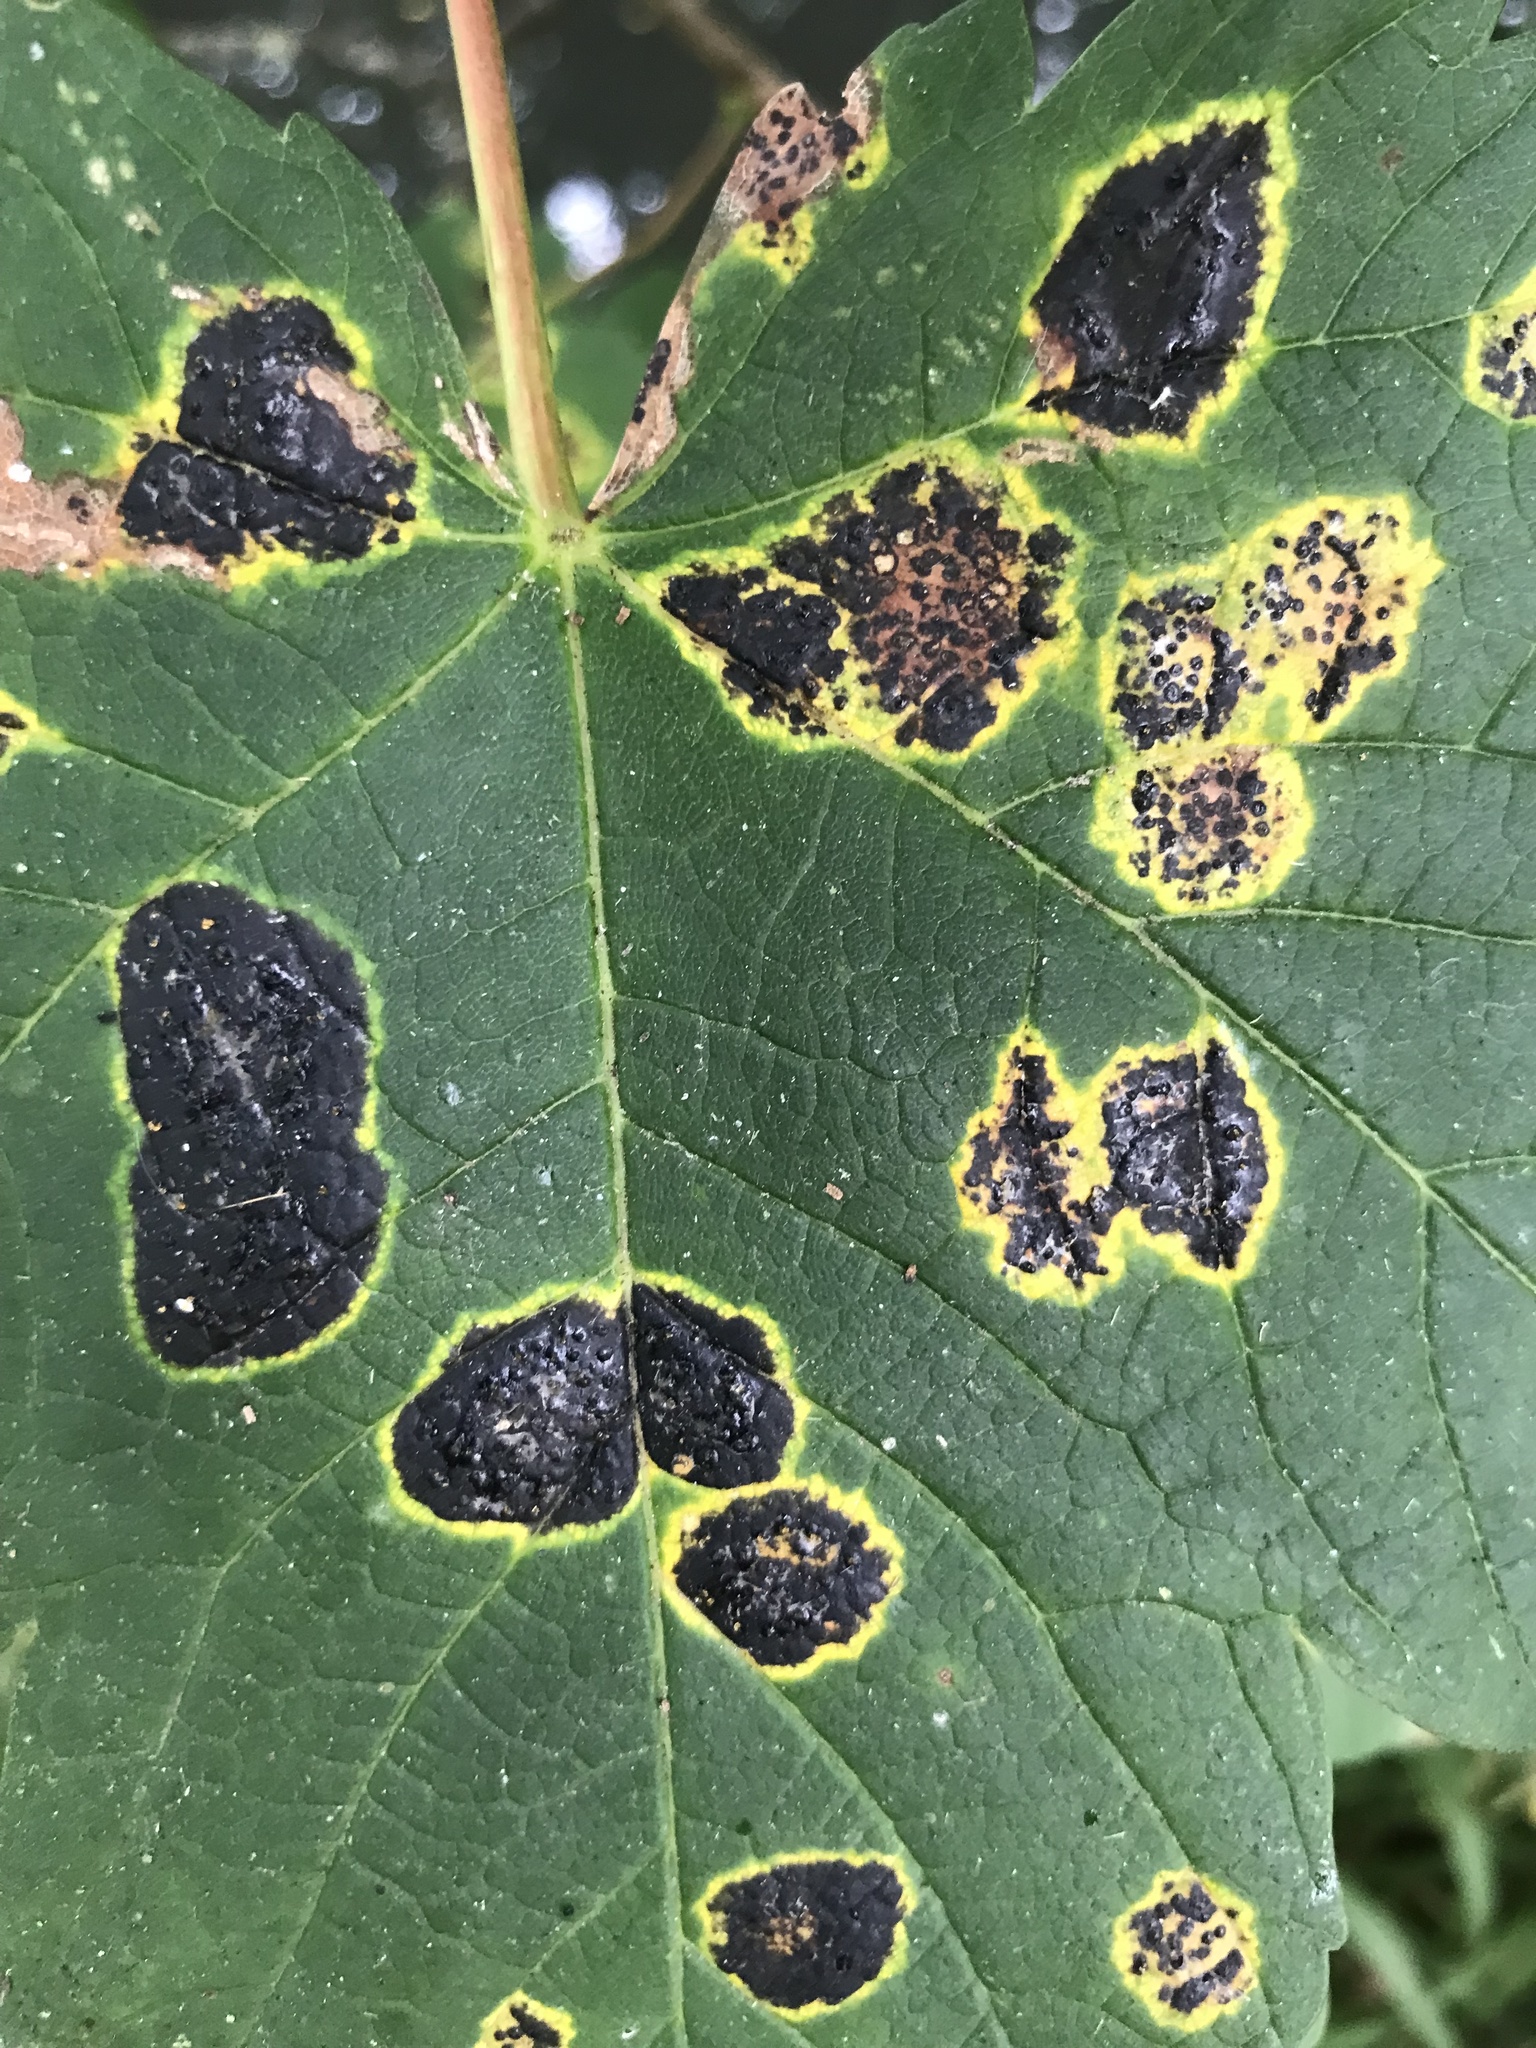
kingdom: Fungi
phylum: Ascomycota
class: Leotiomycetes
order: Rhytismatales
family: Rhytismataceae
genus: Rhytisma
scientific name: Rhytisma acerinum
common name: European tar spot
